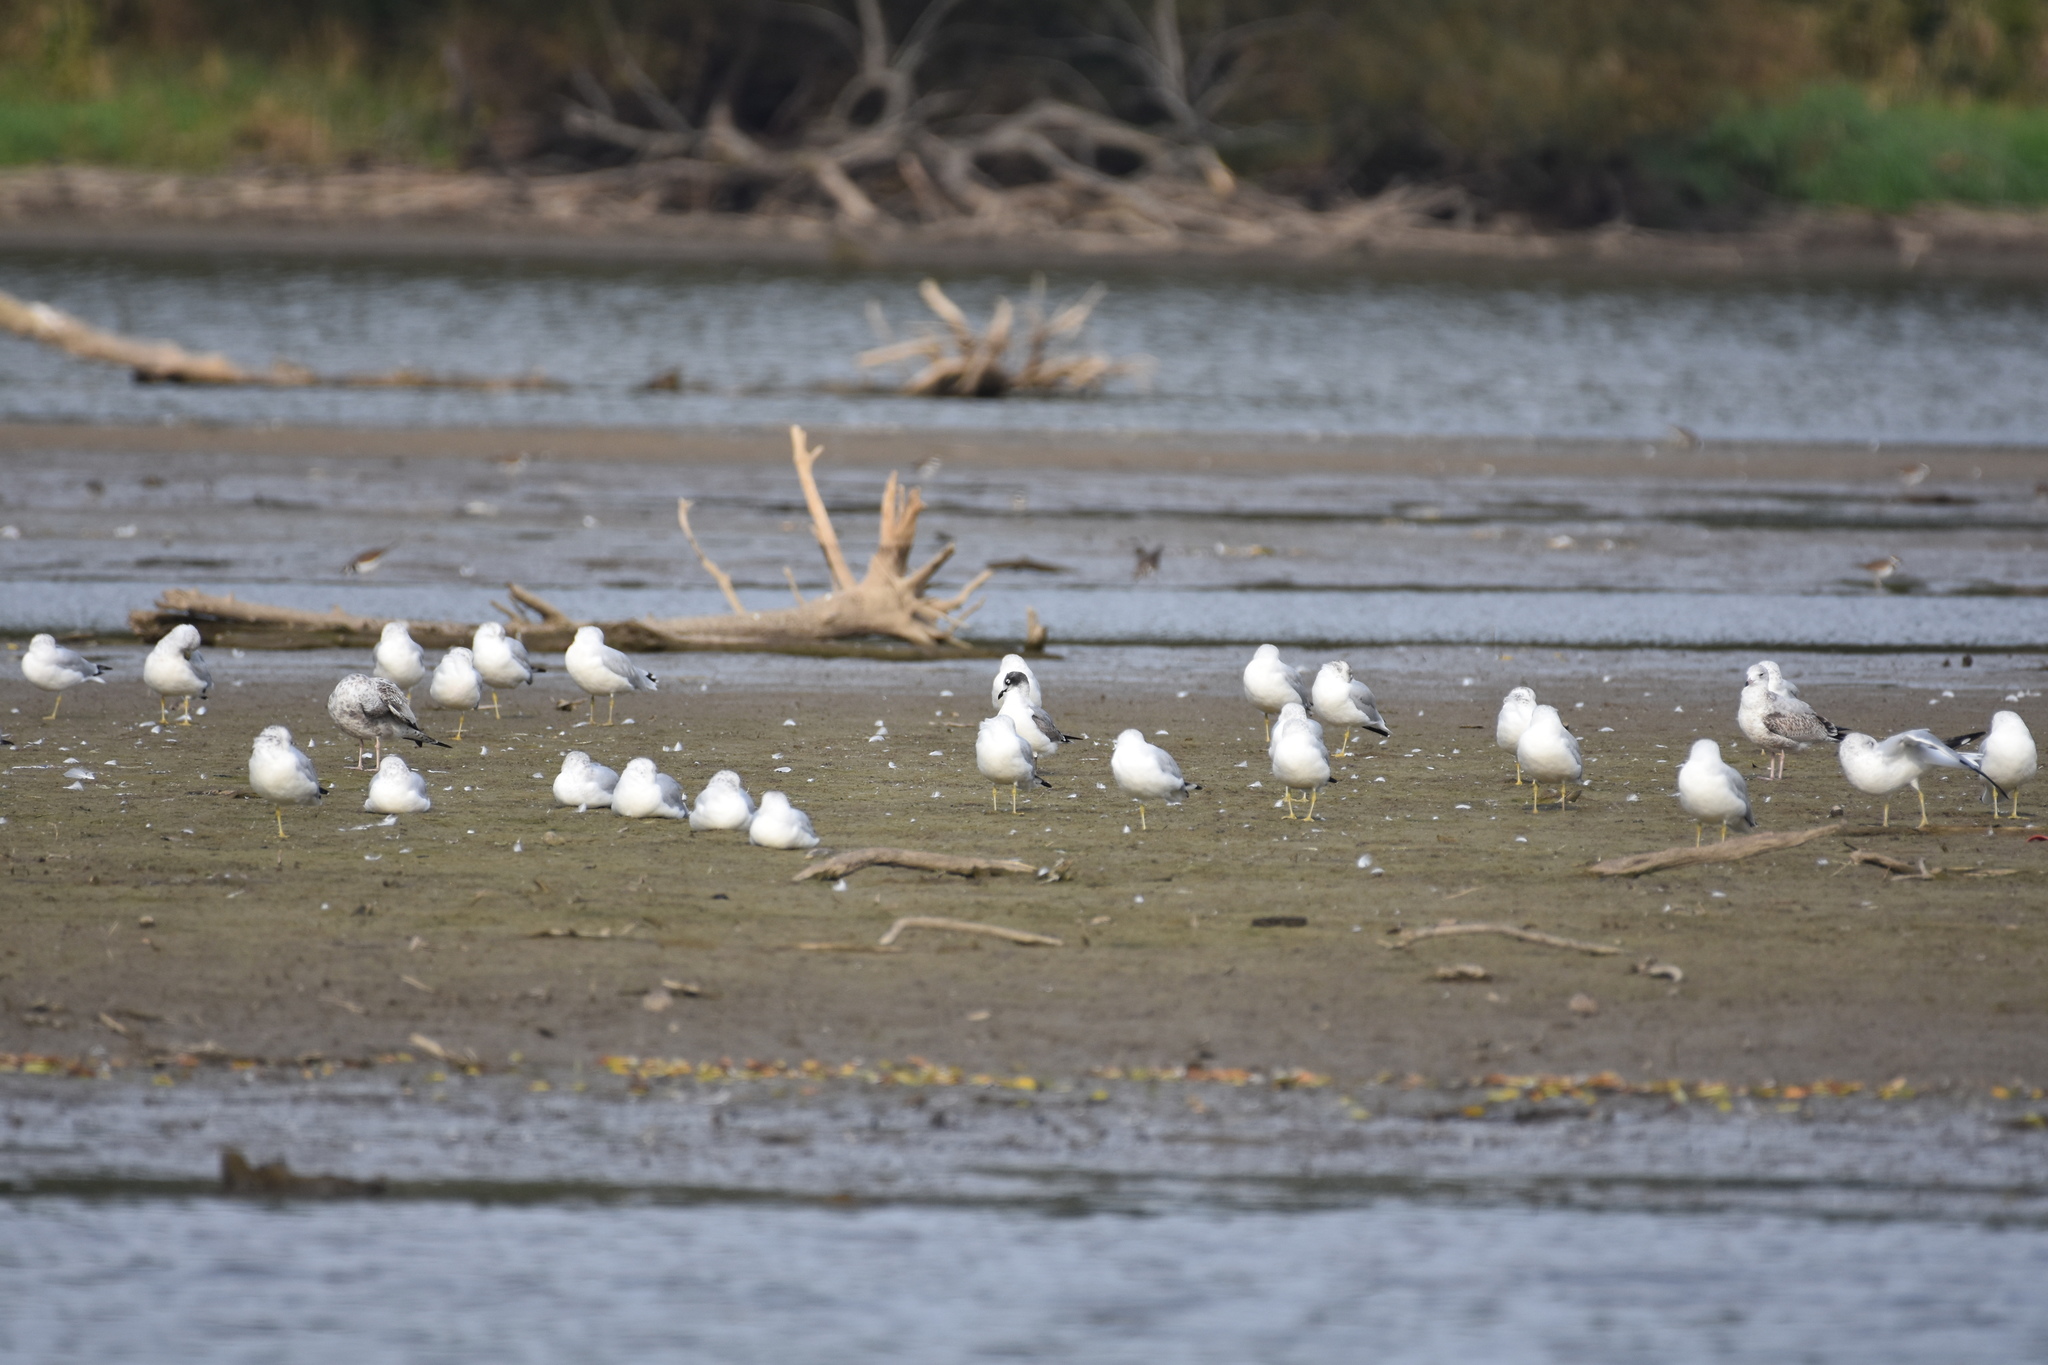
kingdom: Animalia
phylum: Chordata
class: Aves
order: Charadriiformes
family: Laridae
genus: Leucophaeus
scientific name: Leucophaeus pipixcan
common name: Franklin's gull
